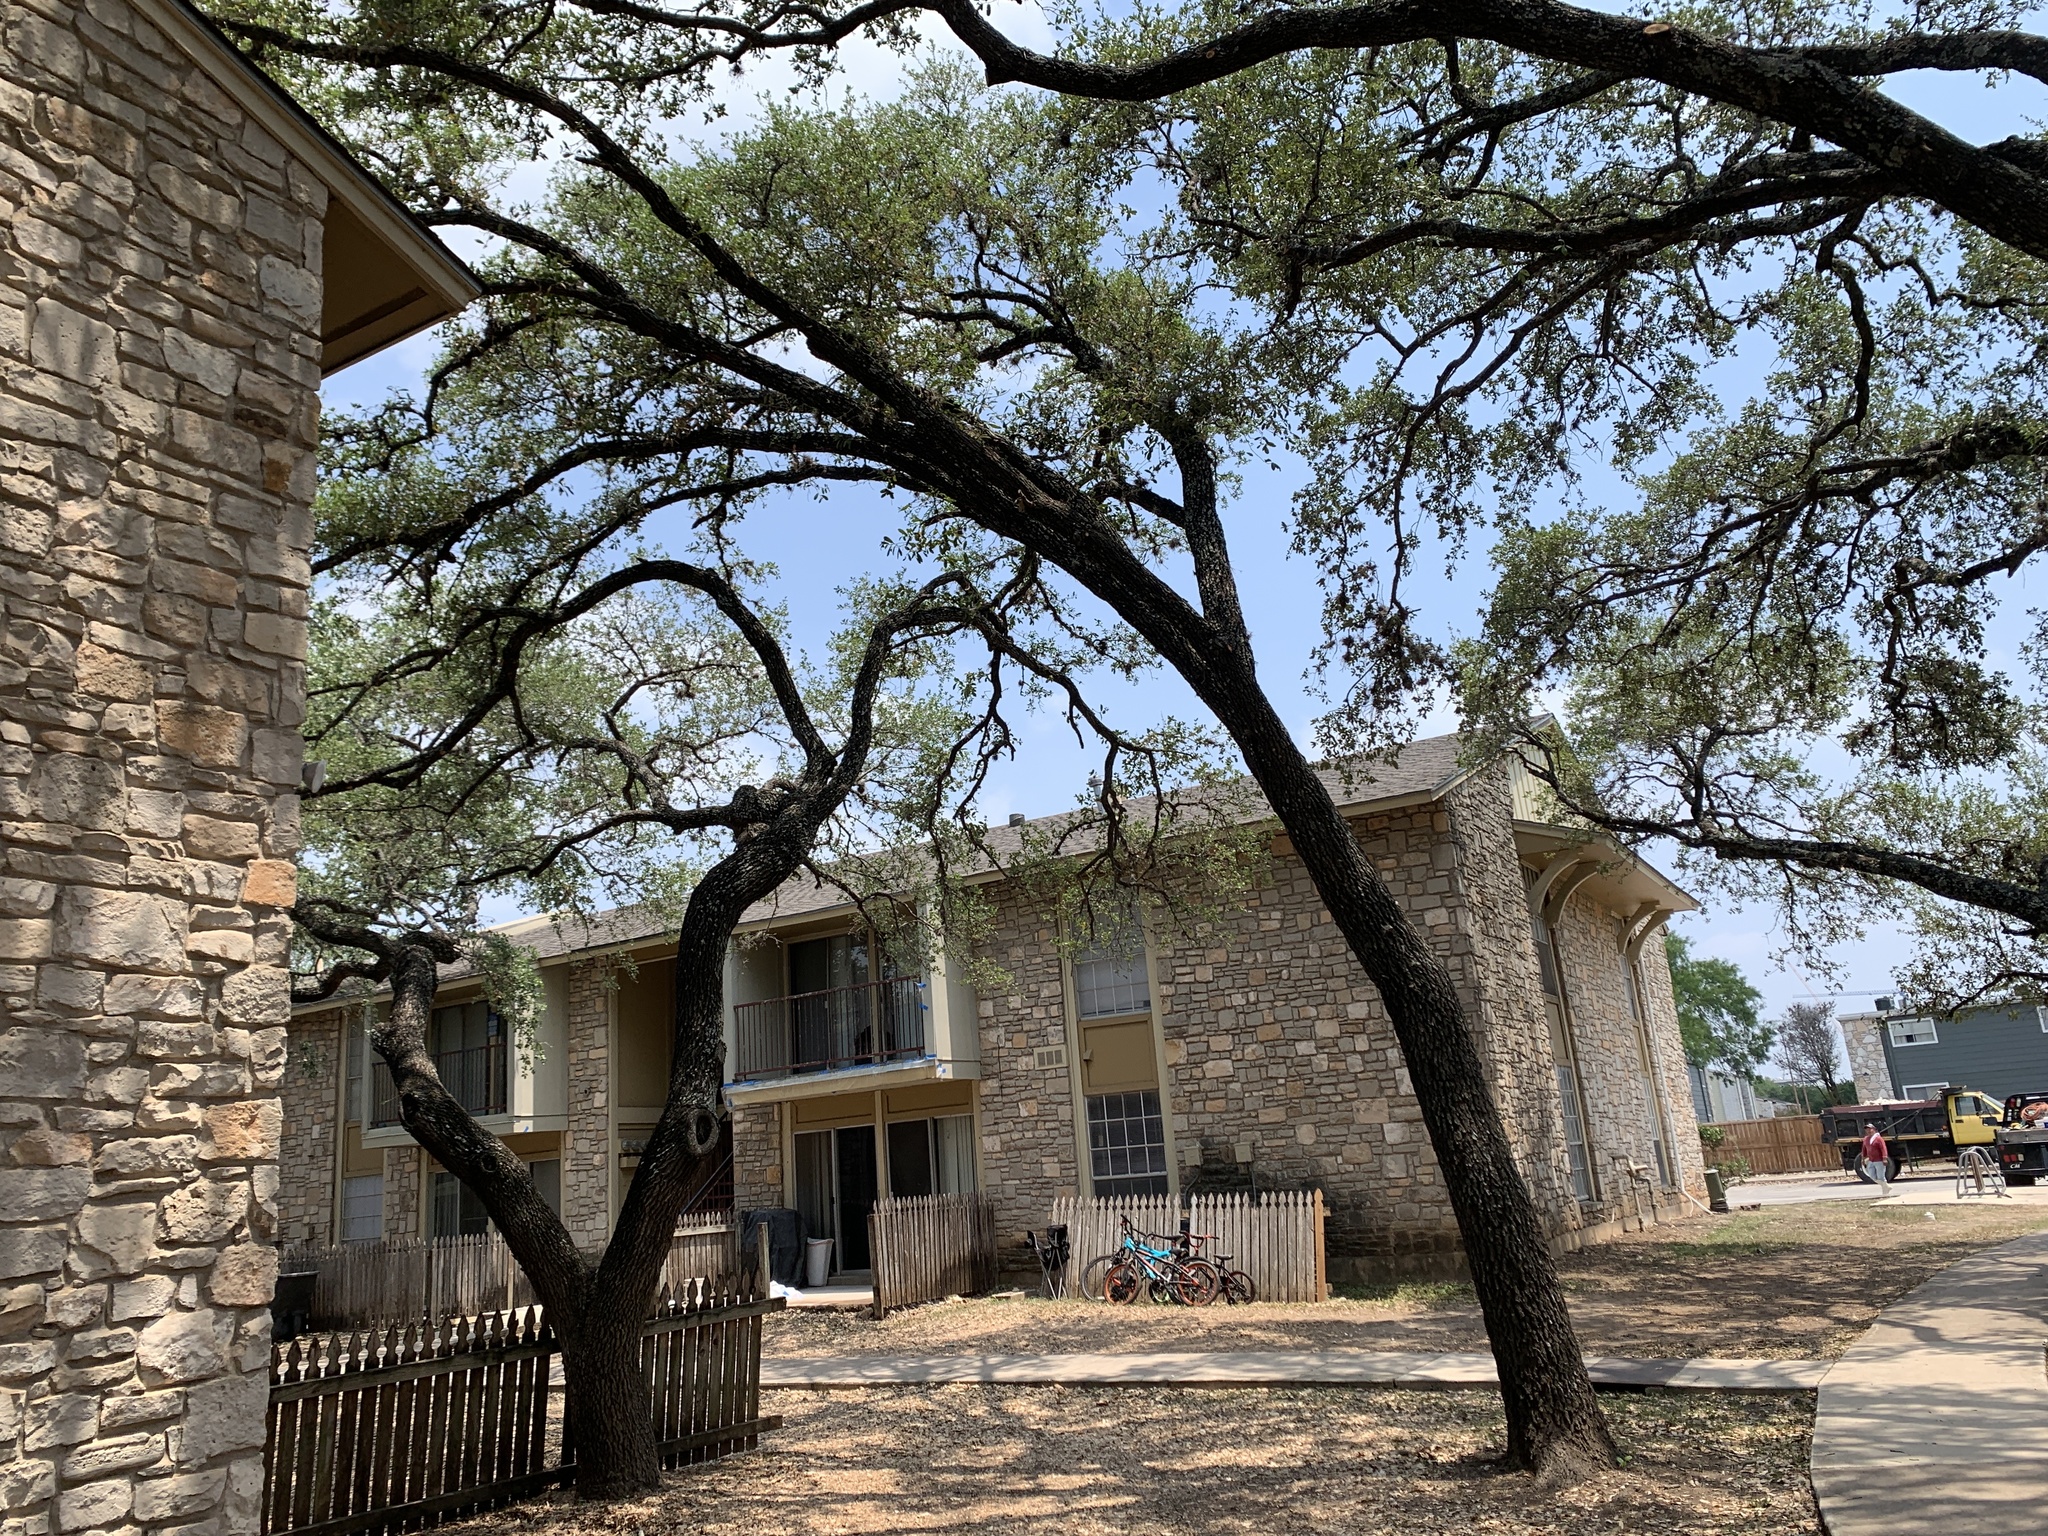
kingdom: Animalia
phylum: Chordata
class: Aves
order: Passeriformes
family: Turdidae
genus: Turdus
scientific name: Turdus migratorius
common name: American robin
